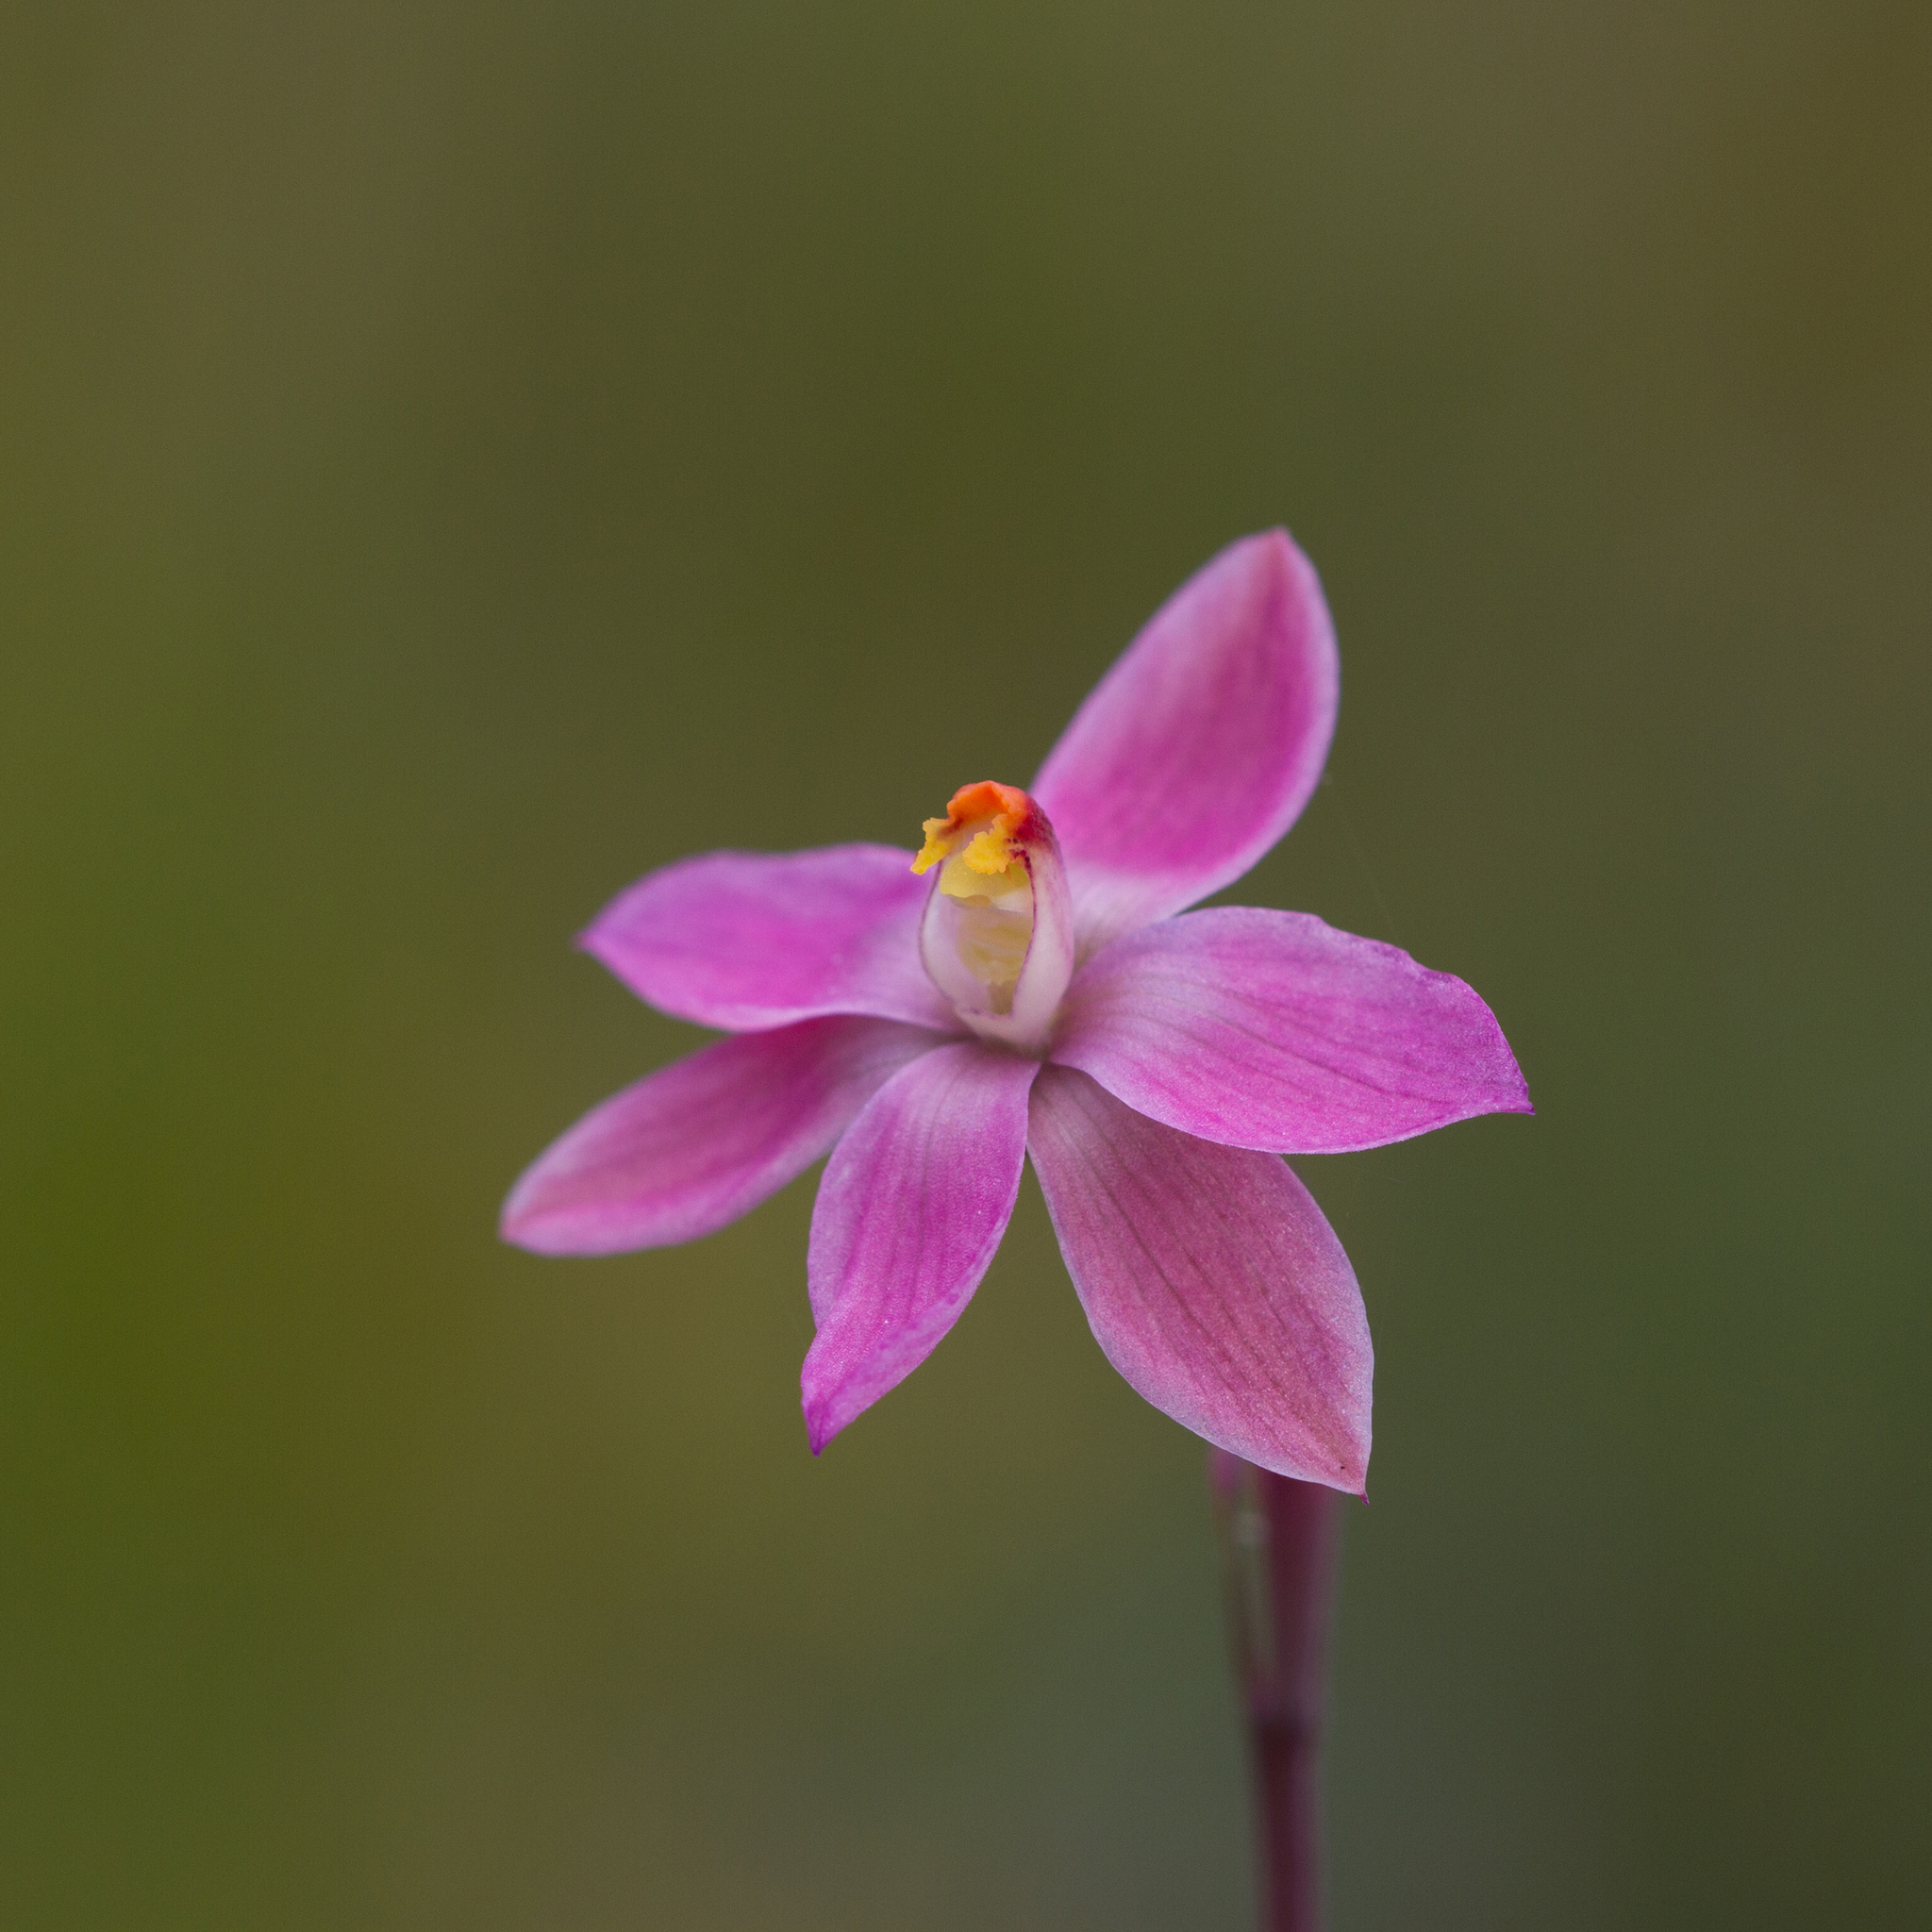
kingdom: Plantae
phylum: Tracheophyta
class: Liliopsida
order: Asparagales
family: Orchidaceae
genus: Thelymitra
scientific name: Thelymitra rubra
